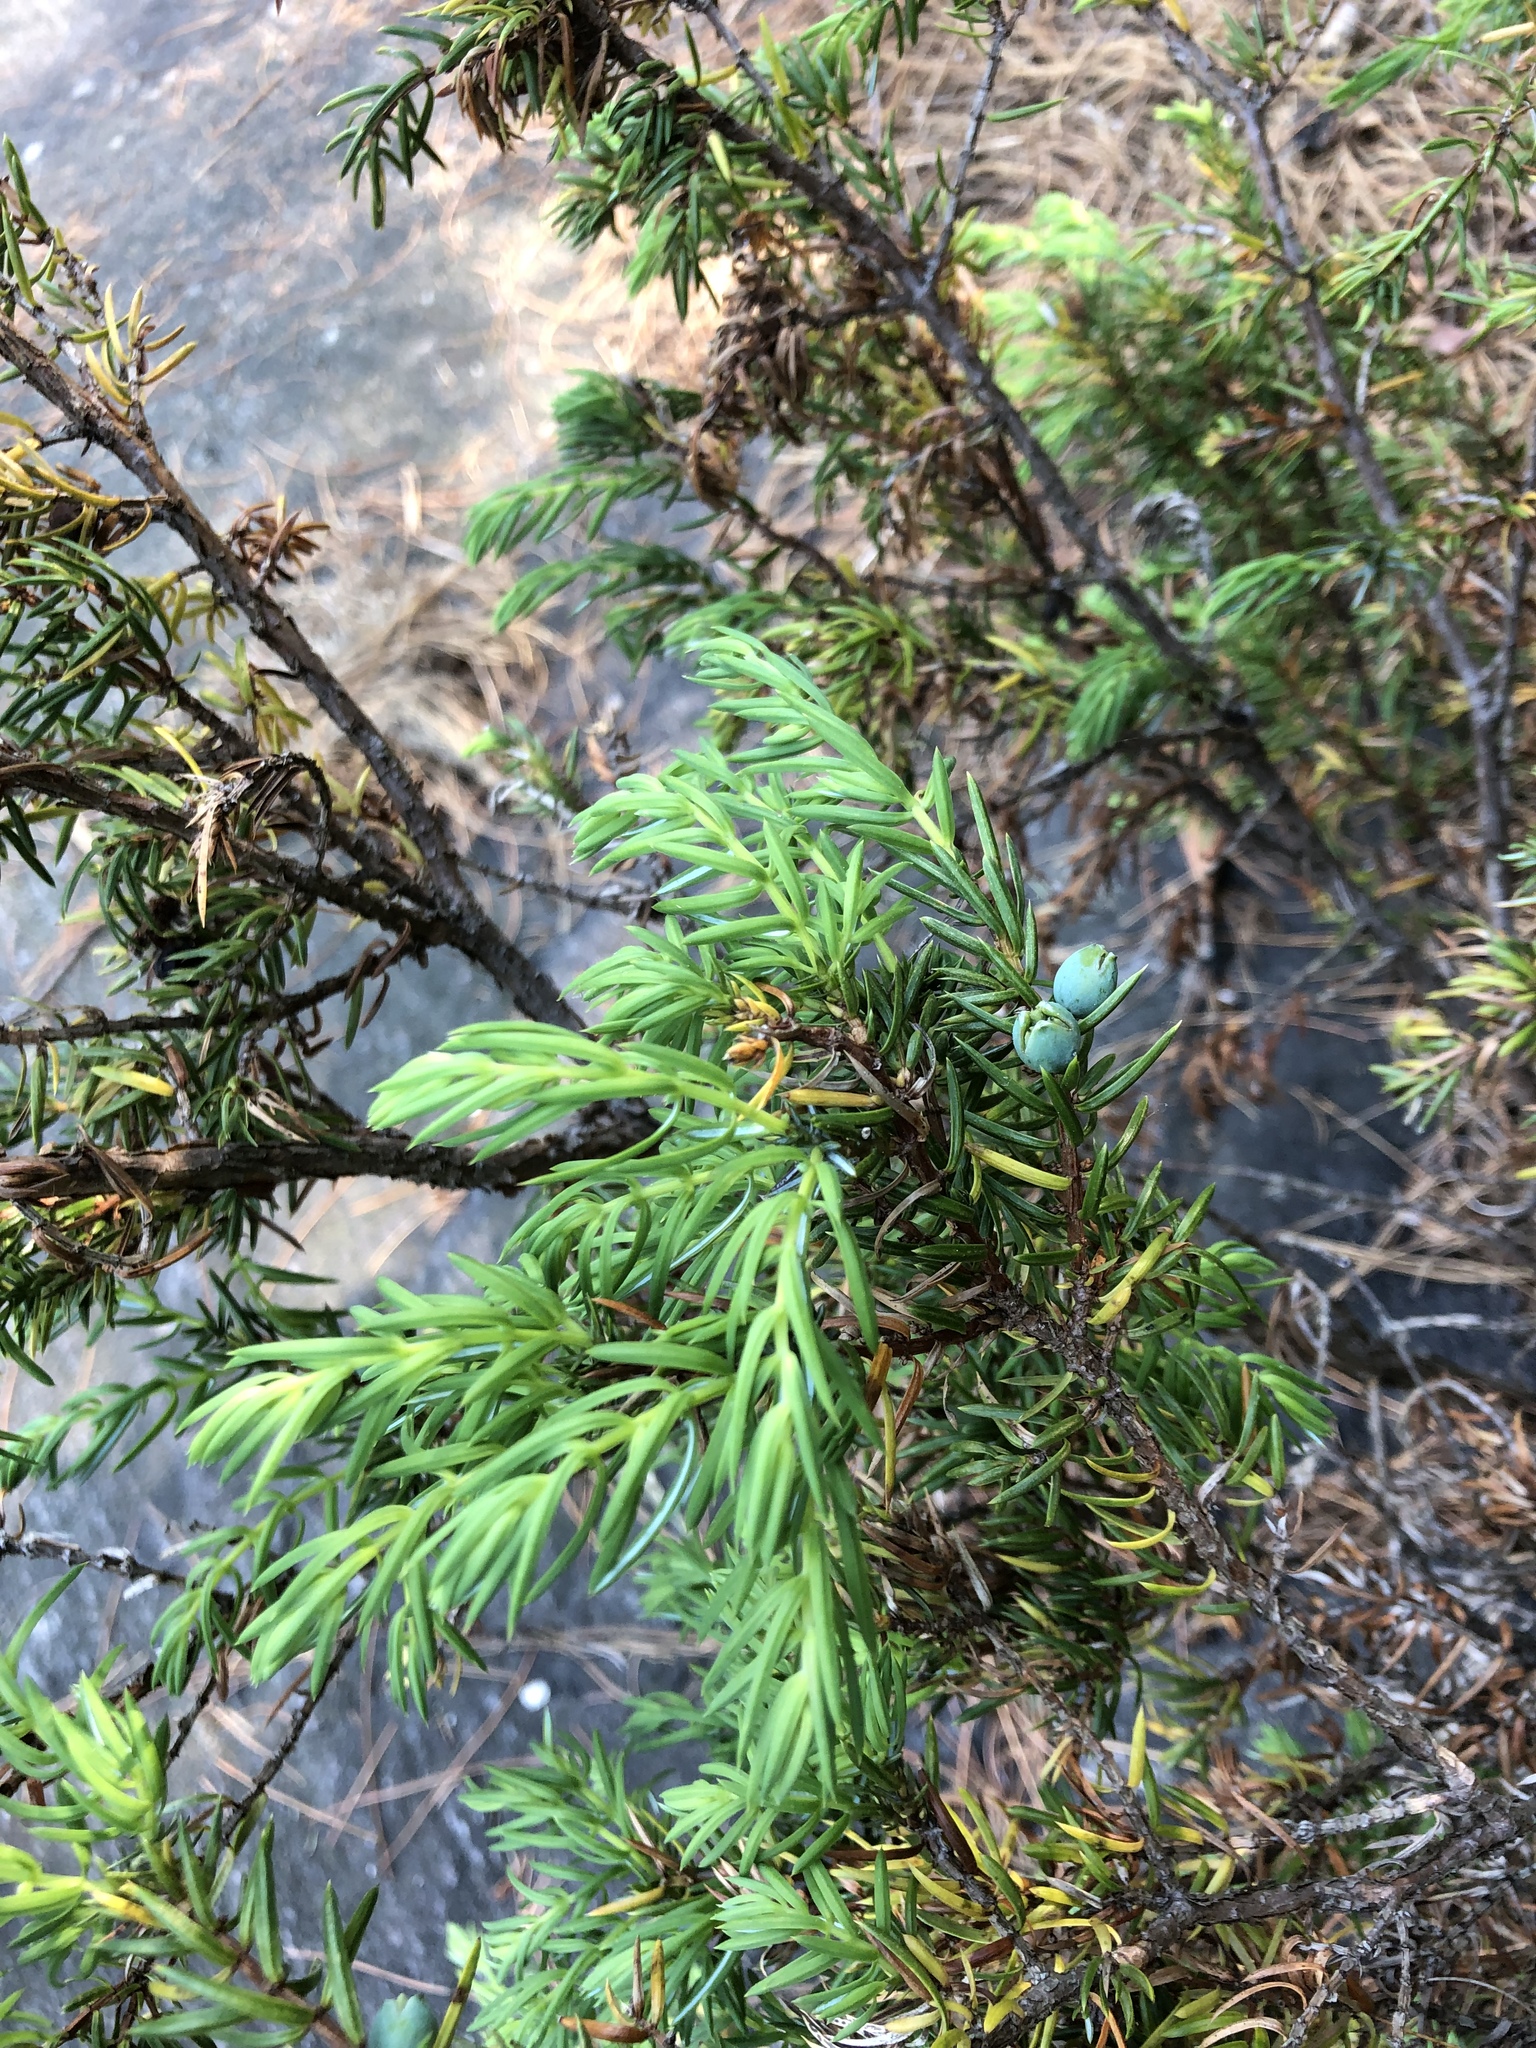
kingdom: Plantae
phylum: Tracheophyta
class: Pinopsida
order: Pinales
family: Cupressaceae
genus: Juniperus
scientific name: Juniperus communis
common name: Common juniper
